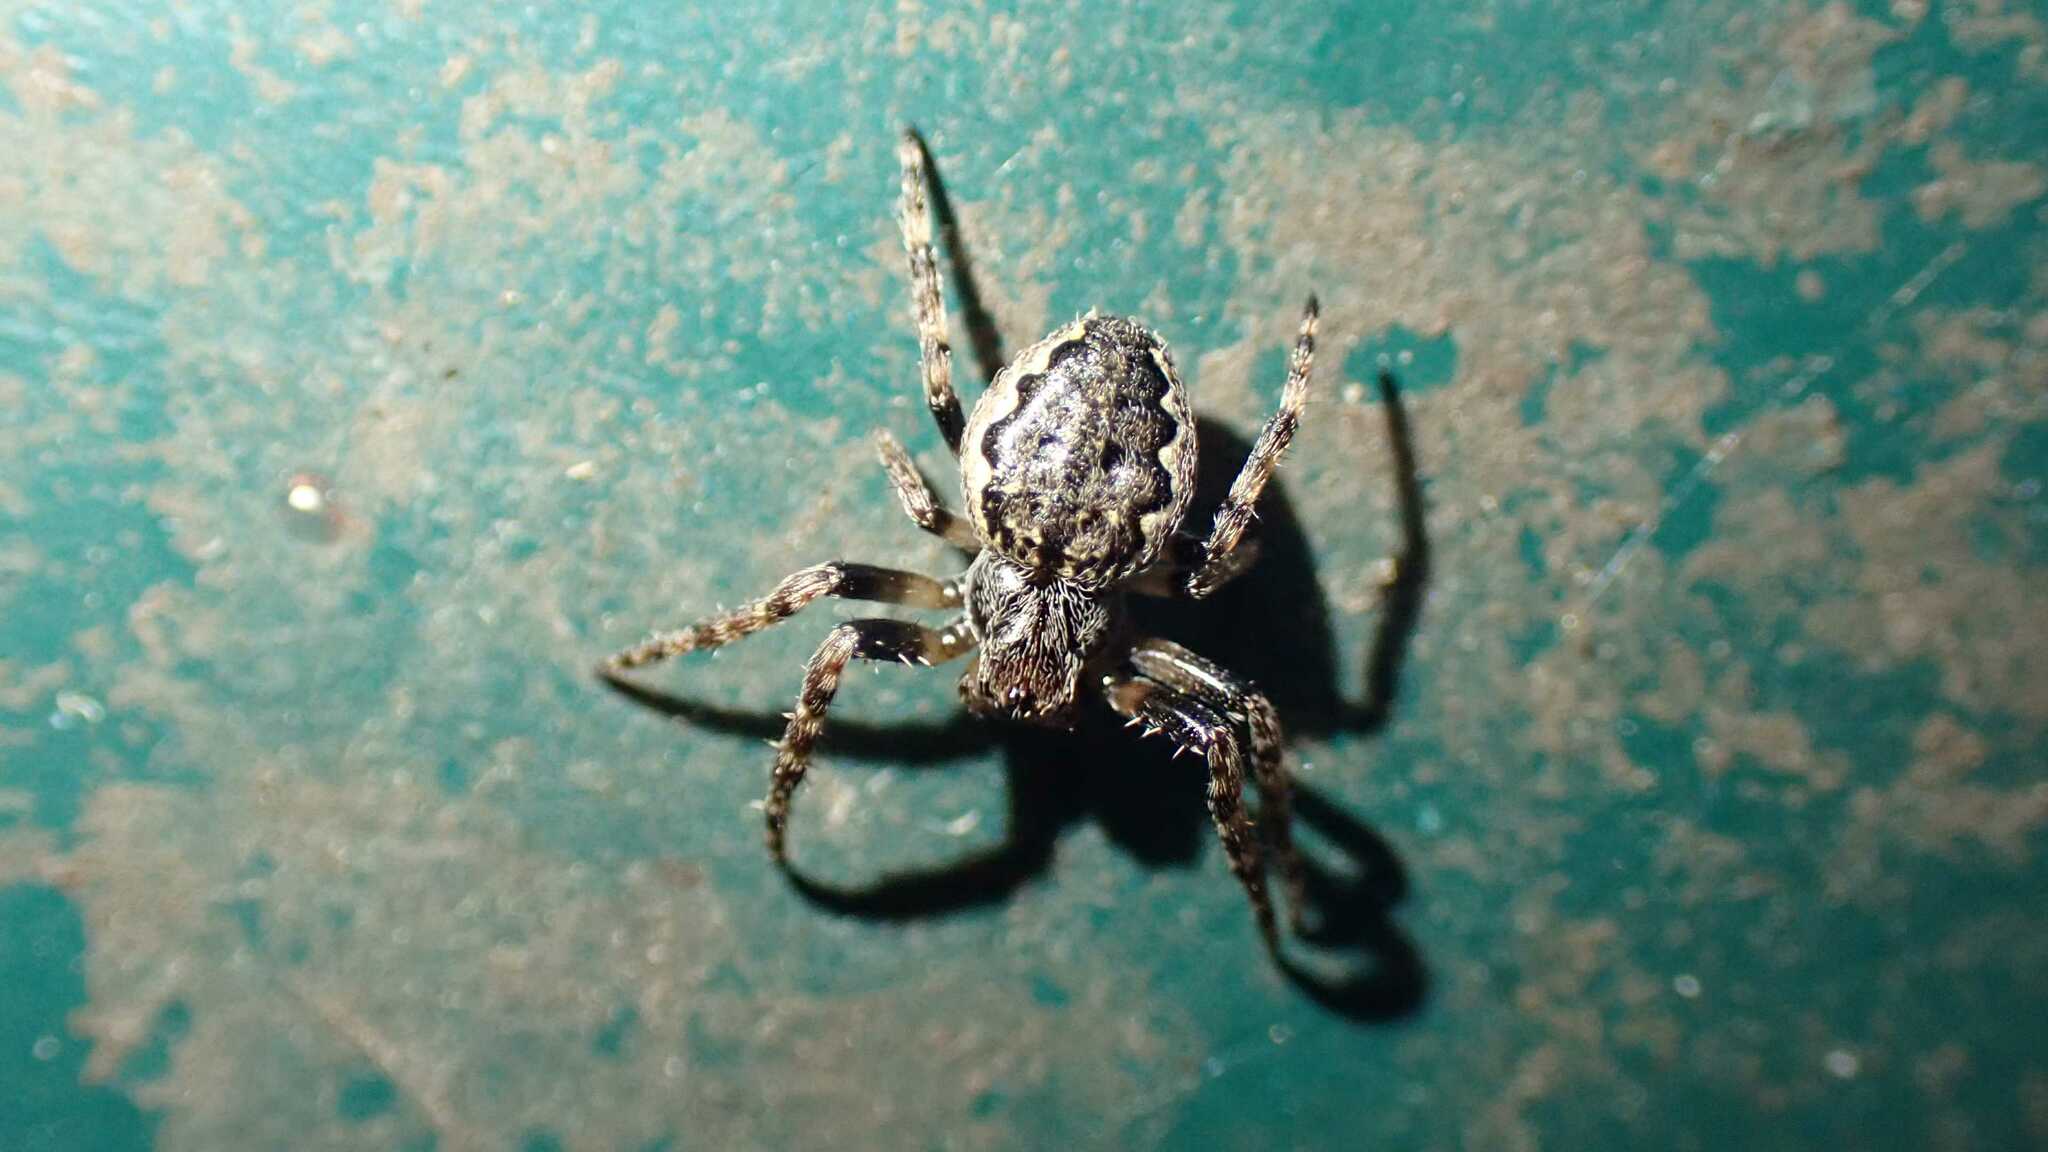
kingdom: Animalia
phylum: Arthropoda
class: Arachnida
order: Araneae
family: Araneidae
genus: Nuctenea
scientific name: Nuctenea umbratica
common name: Toad spider
